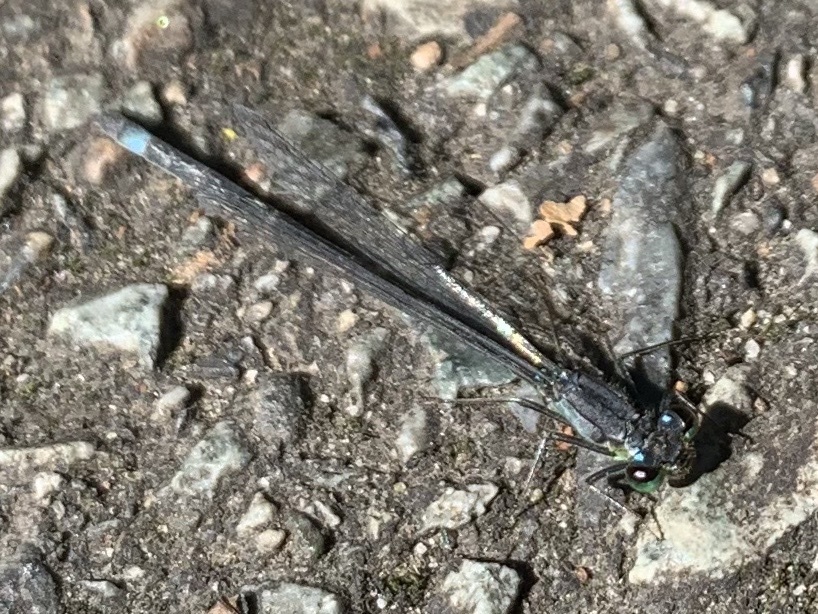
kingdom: Animalia
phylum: Arthropoda
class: Insecta
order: Odonata
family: Coenagrionidae
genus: Ischnura
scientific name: Ischnura cervula
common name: Pacific forktail
